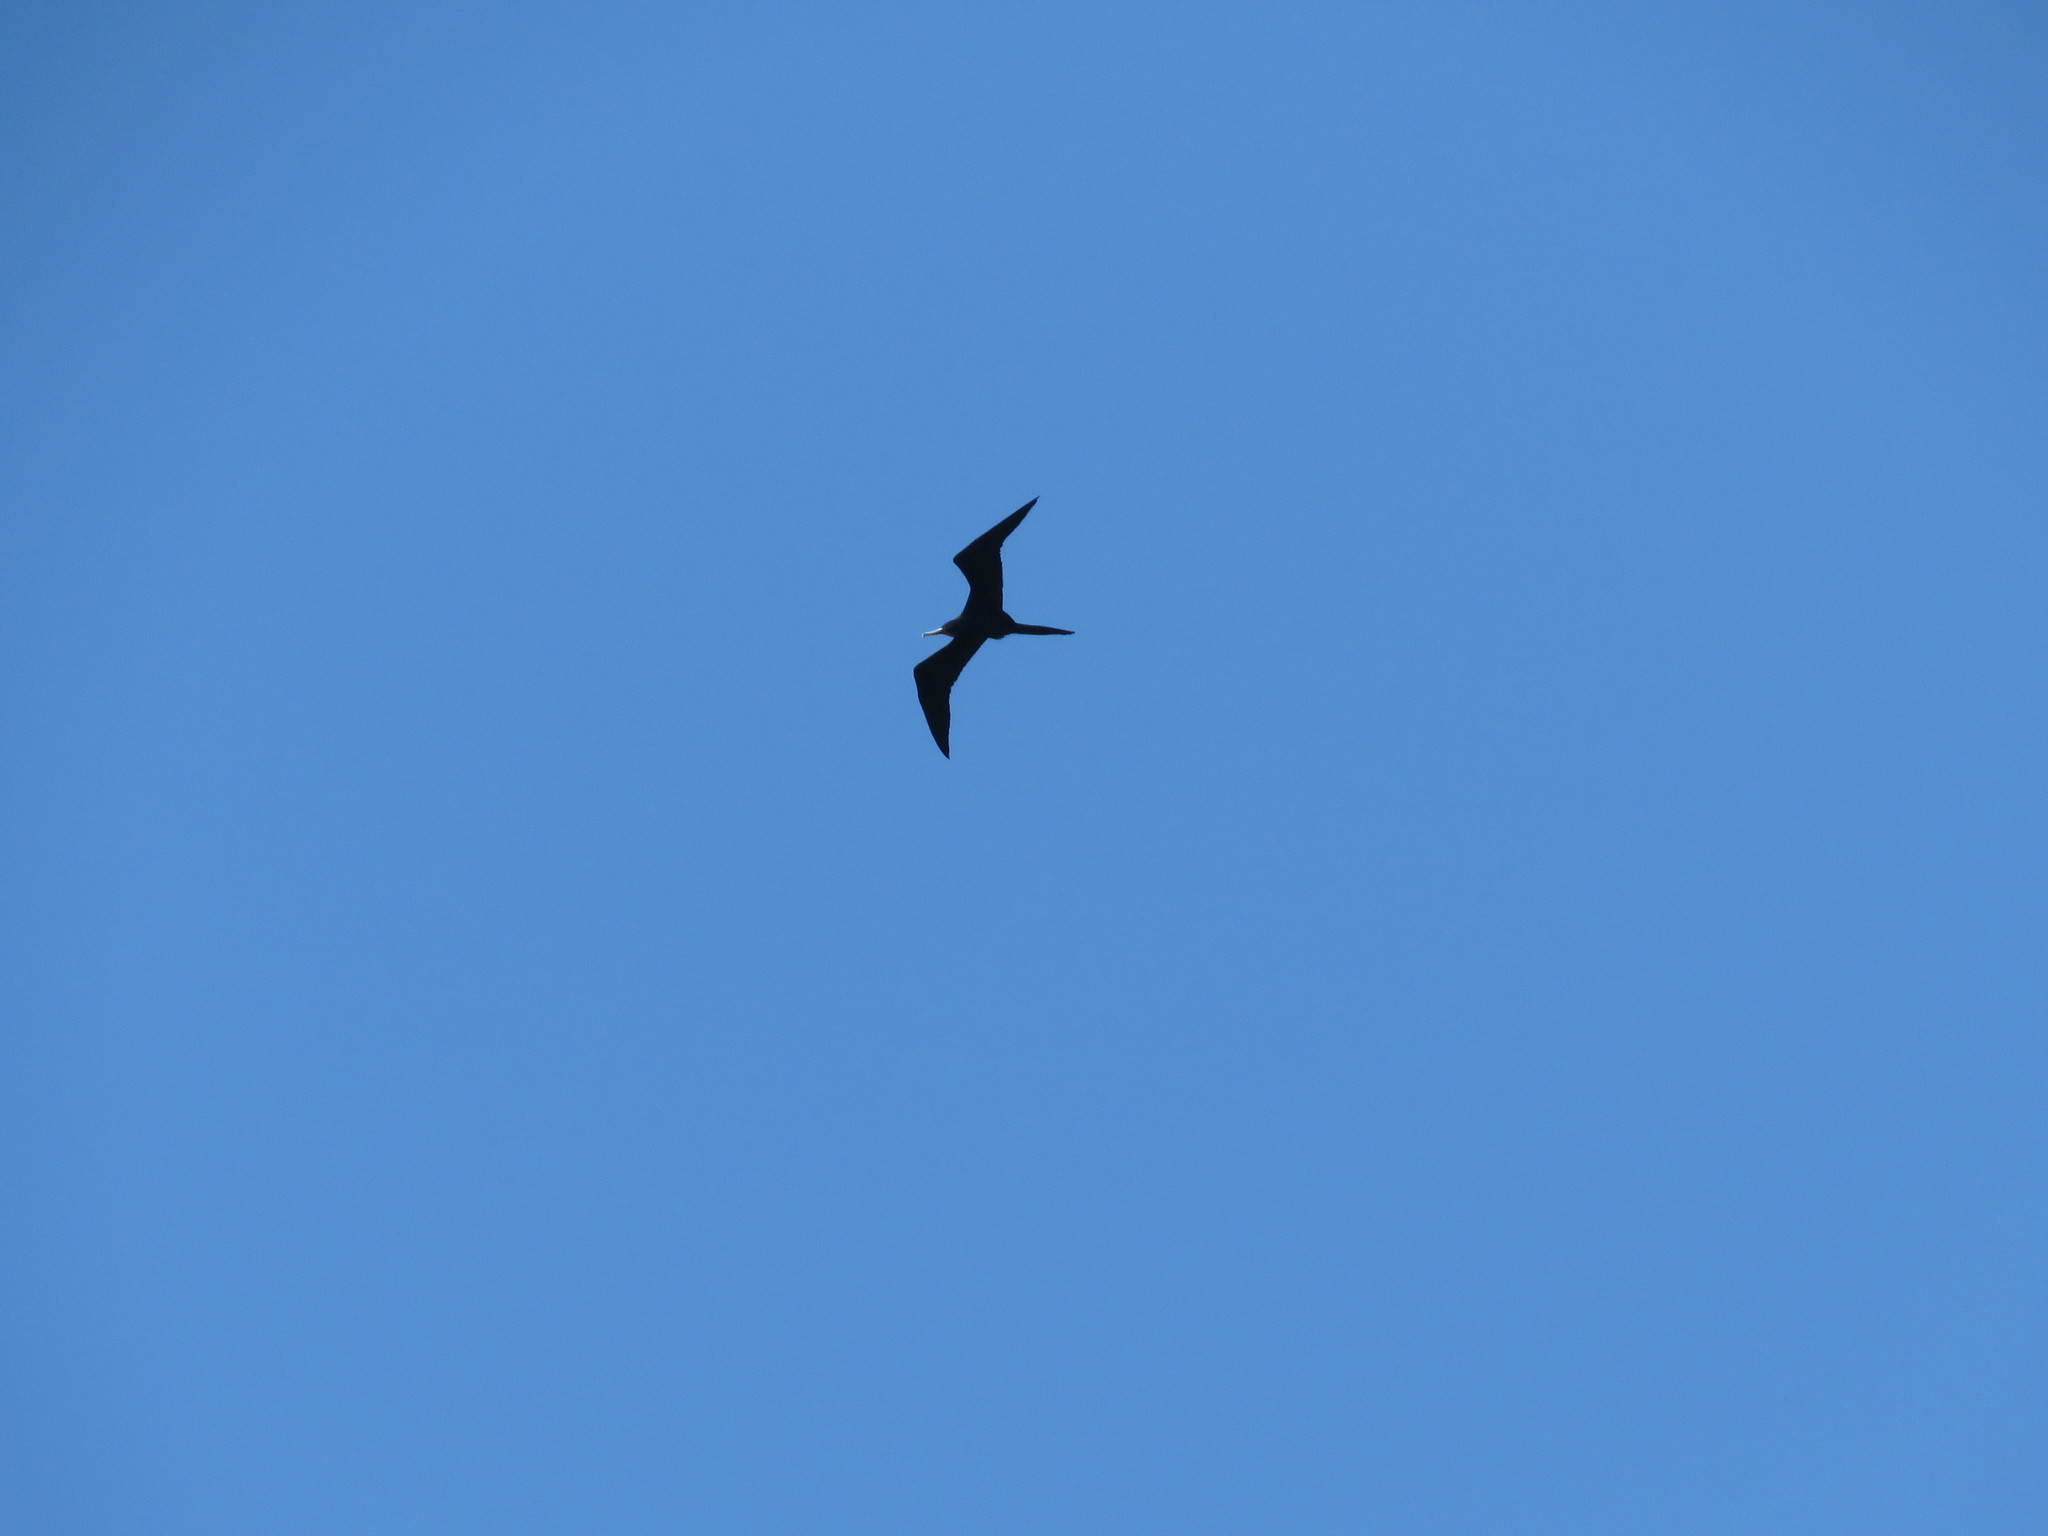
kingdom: Animalia
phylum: Chordata
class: Aves
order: Suliformes
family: Fregatidae
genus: Fregata
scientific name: Fregata magnificens
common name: Magnificent frigatebird
